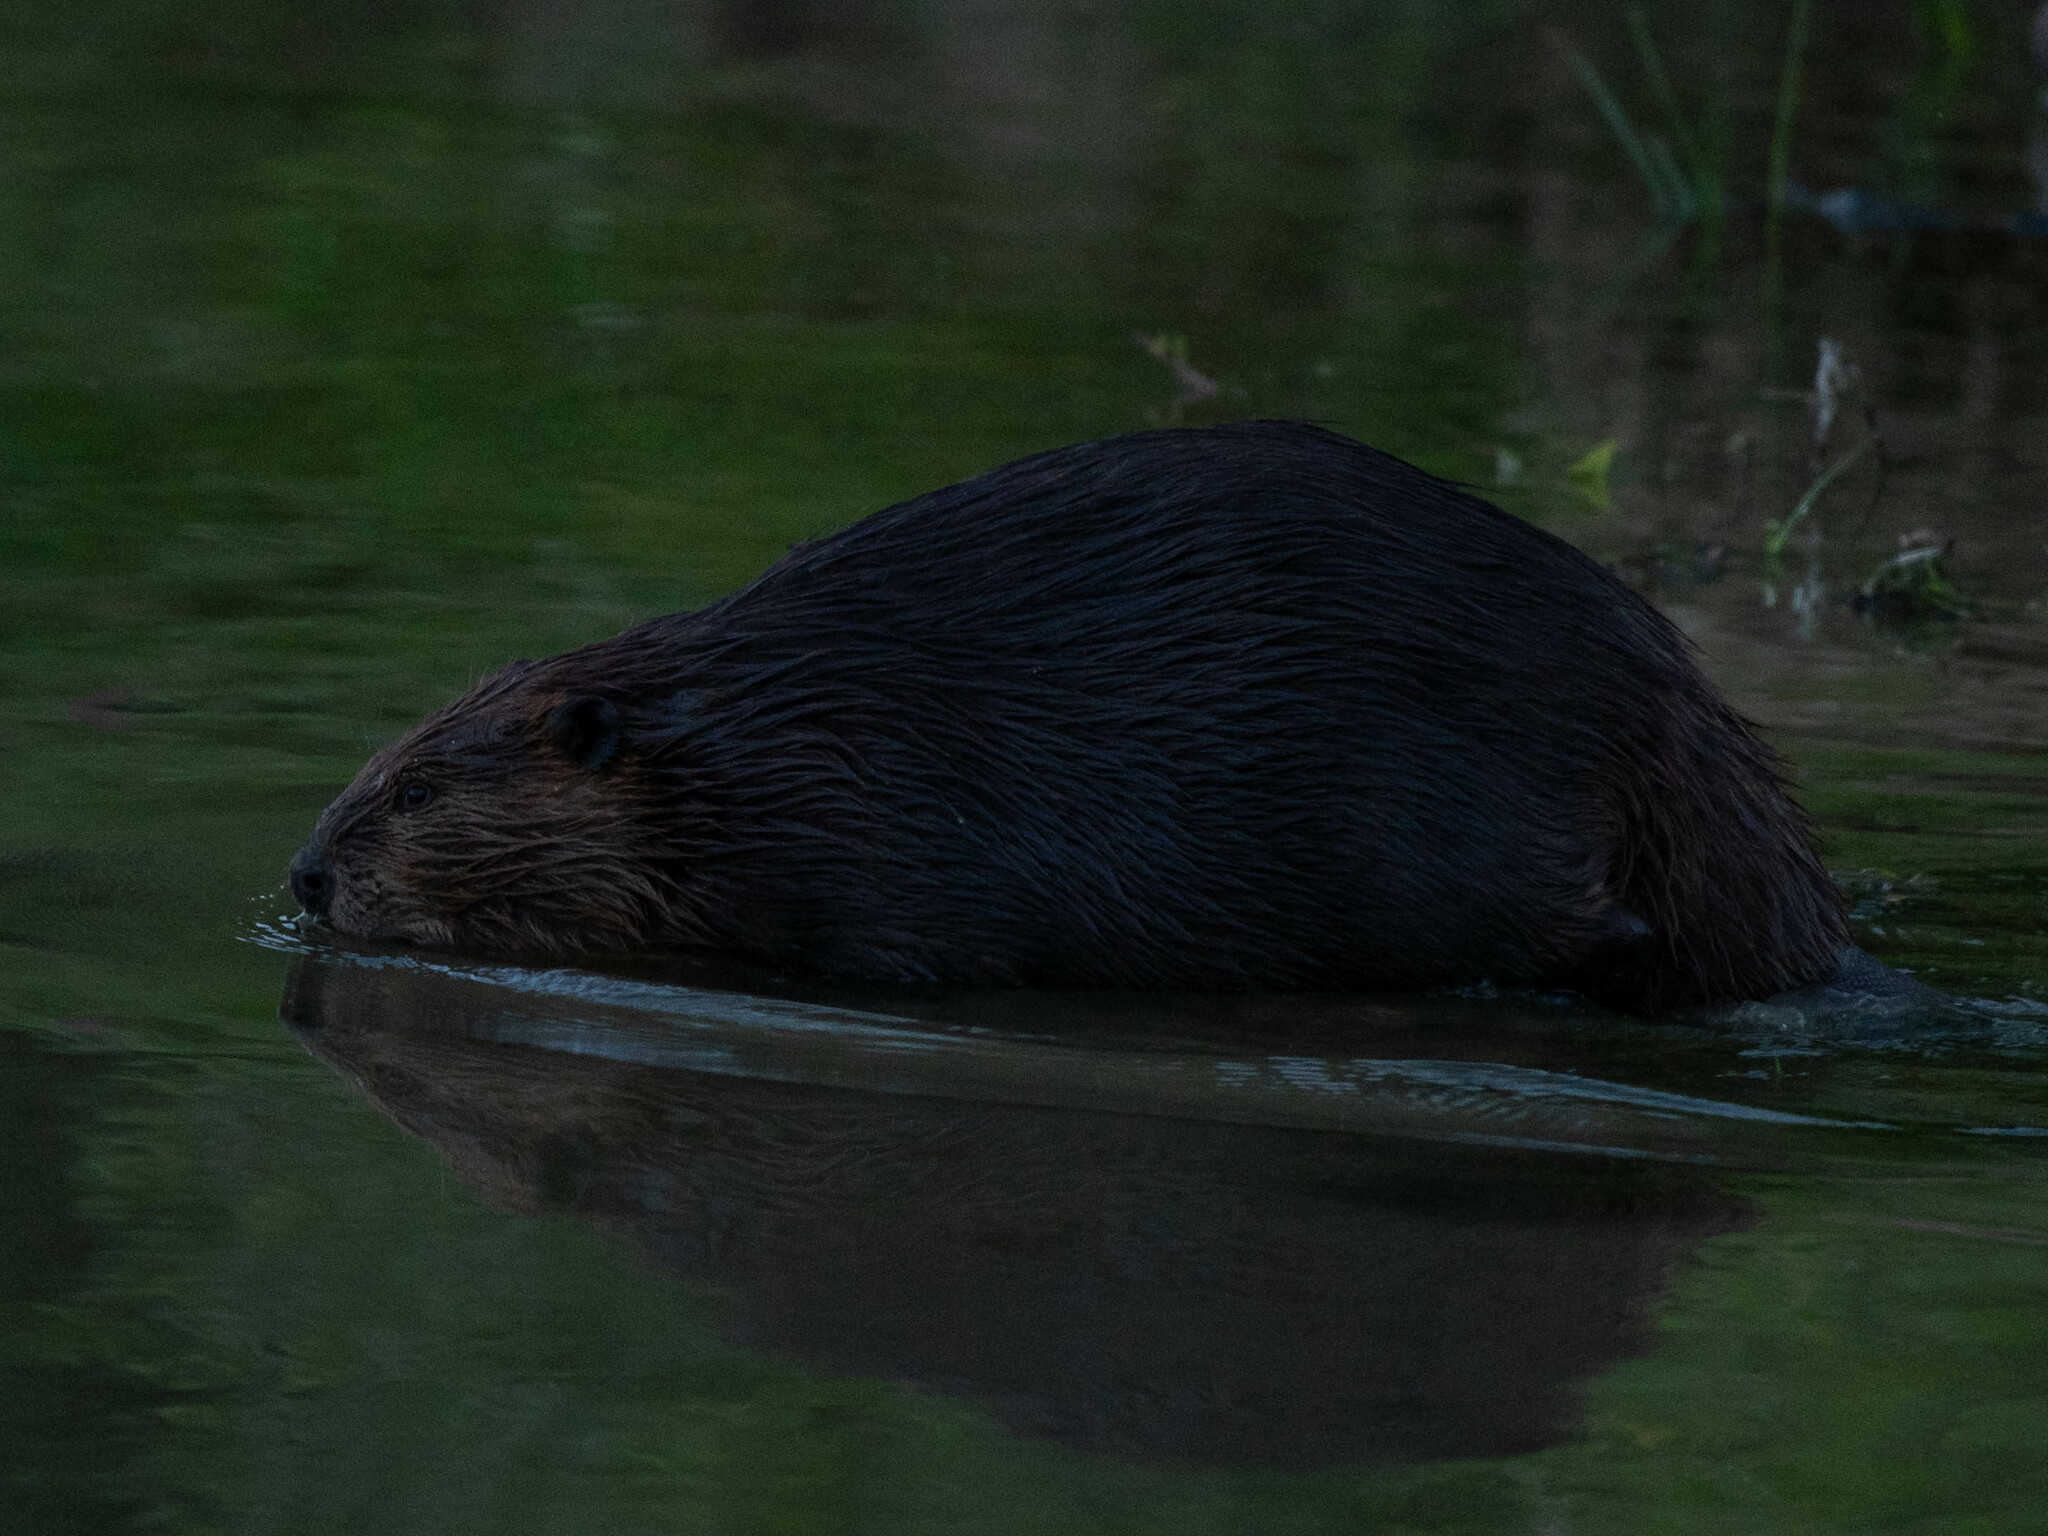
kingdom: Animalia
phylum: Chordata
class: Mammalia
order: Rodentia
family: Castoridae
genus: Castor
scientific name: Castor canadensis
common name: American beaver
